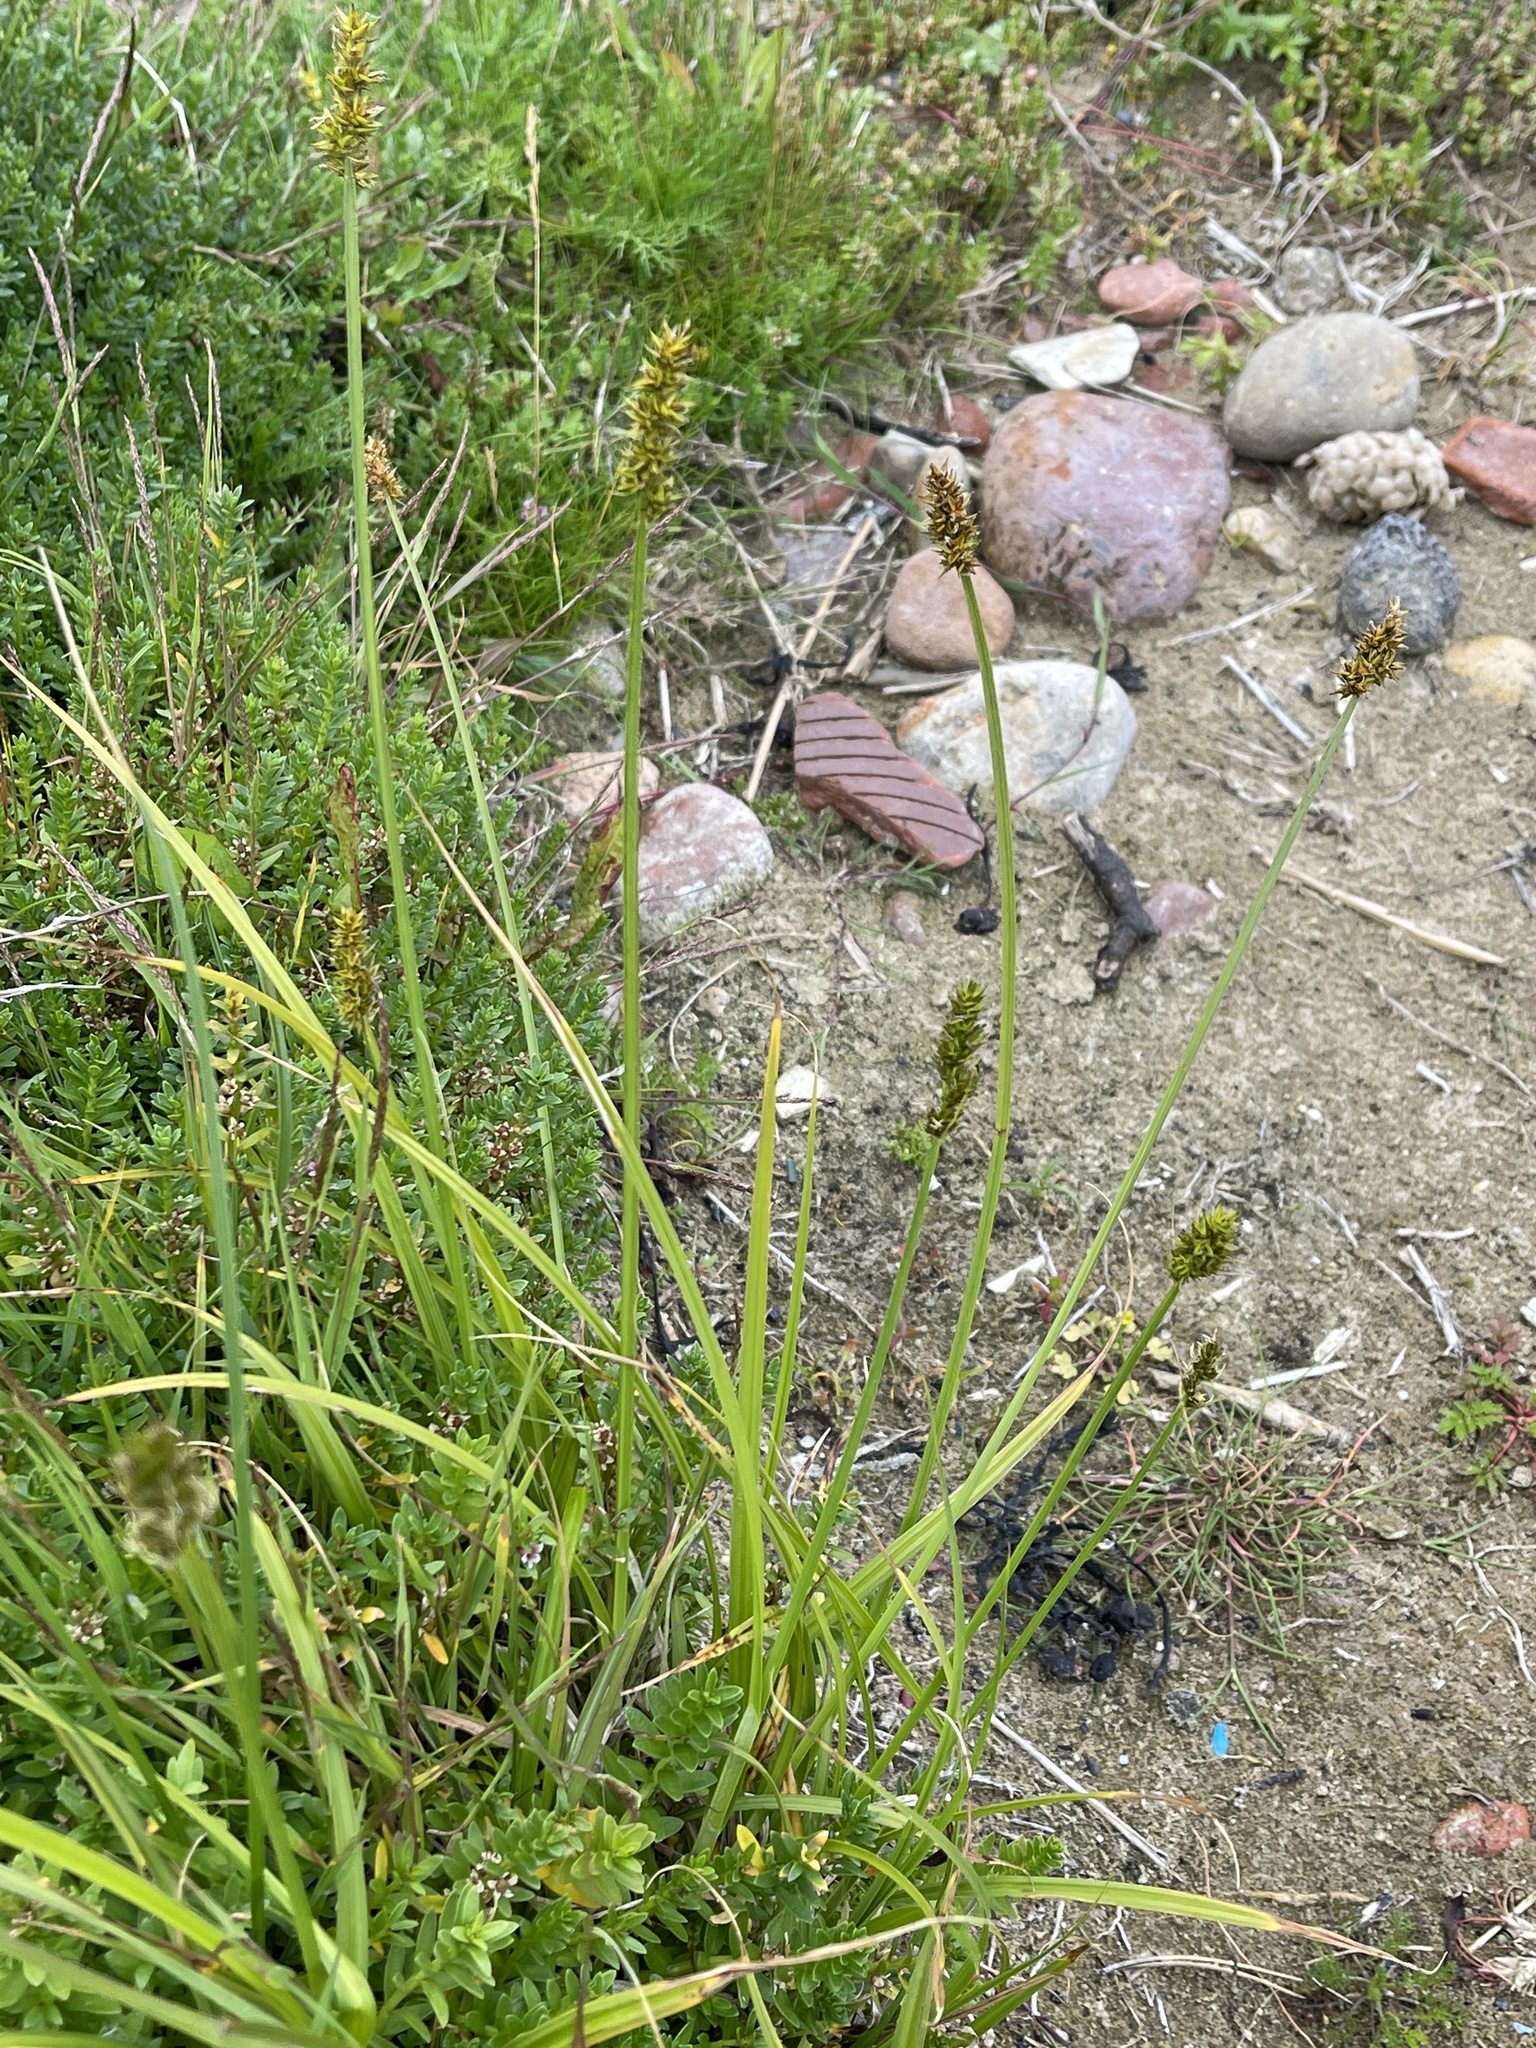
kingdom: Plantae
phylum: Tracheophyta
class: Liliopsida
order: Poales
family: Cyperaceae
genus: Carex
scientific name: Carex otrubae
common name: False fox-sedge
